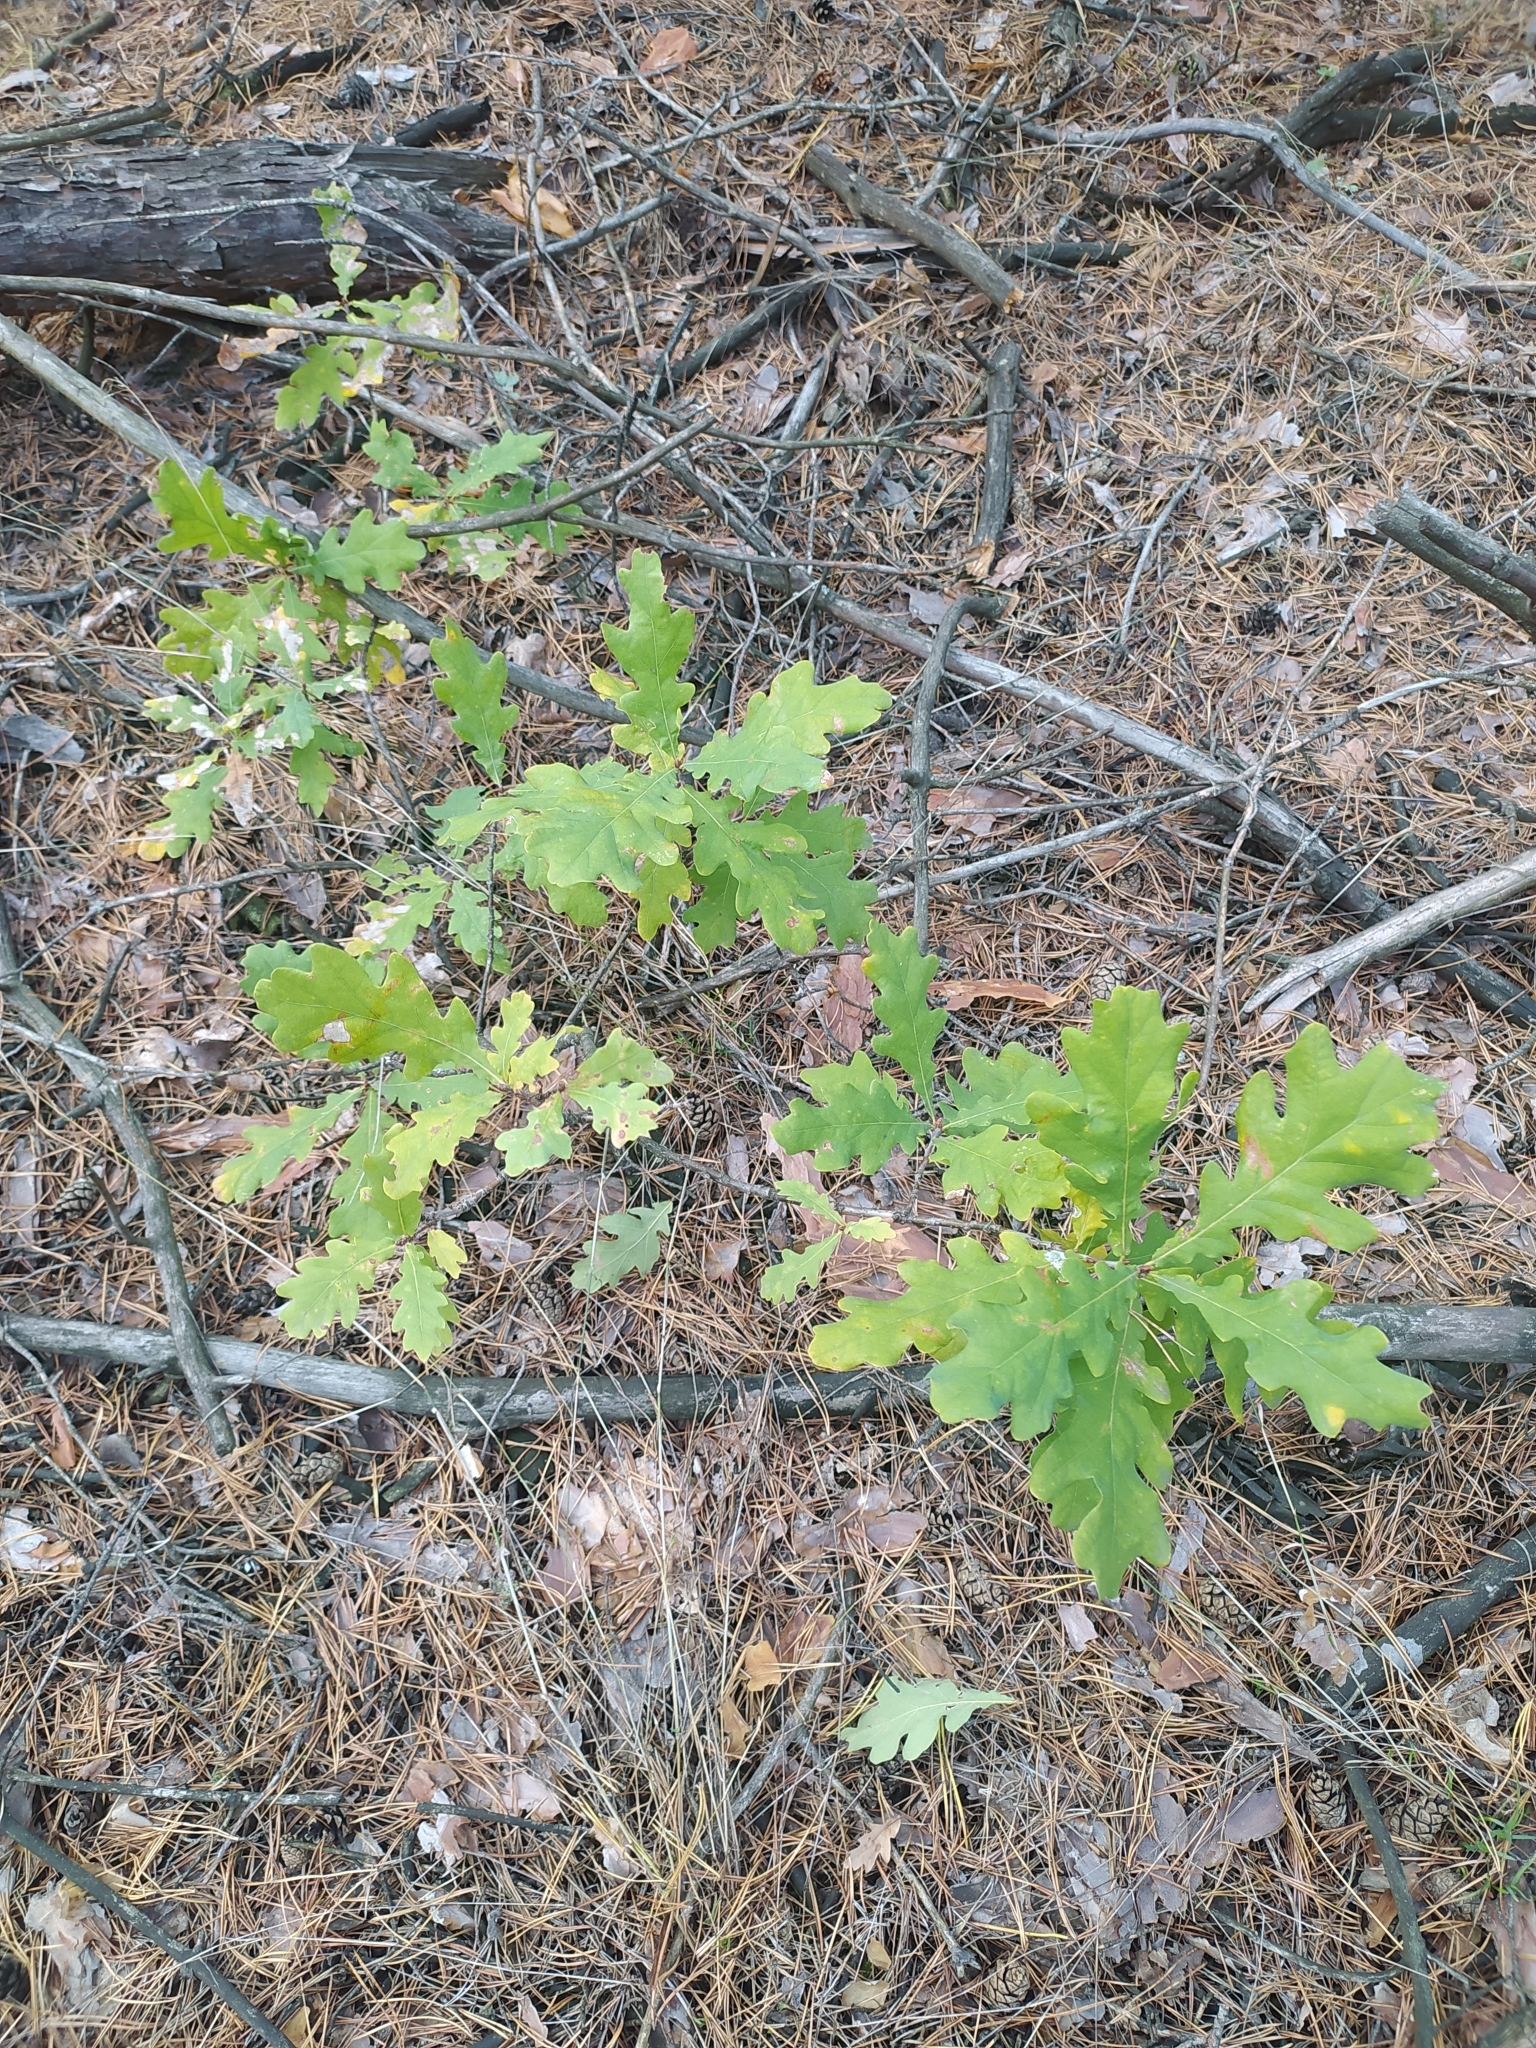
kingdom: Plantae
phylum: Tracheophyta
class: Magnoliopsida
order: Fagales
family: Fagaceae
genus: Quercus
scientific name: Quercus robur
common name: Pedunculate oak
